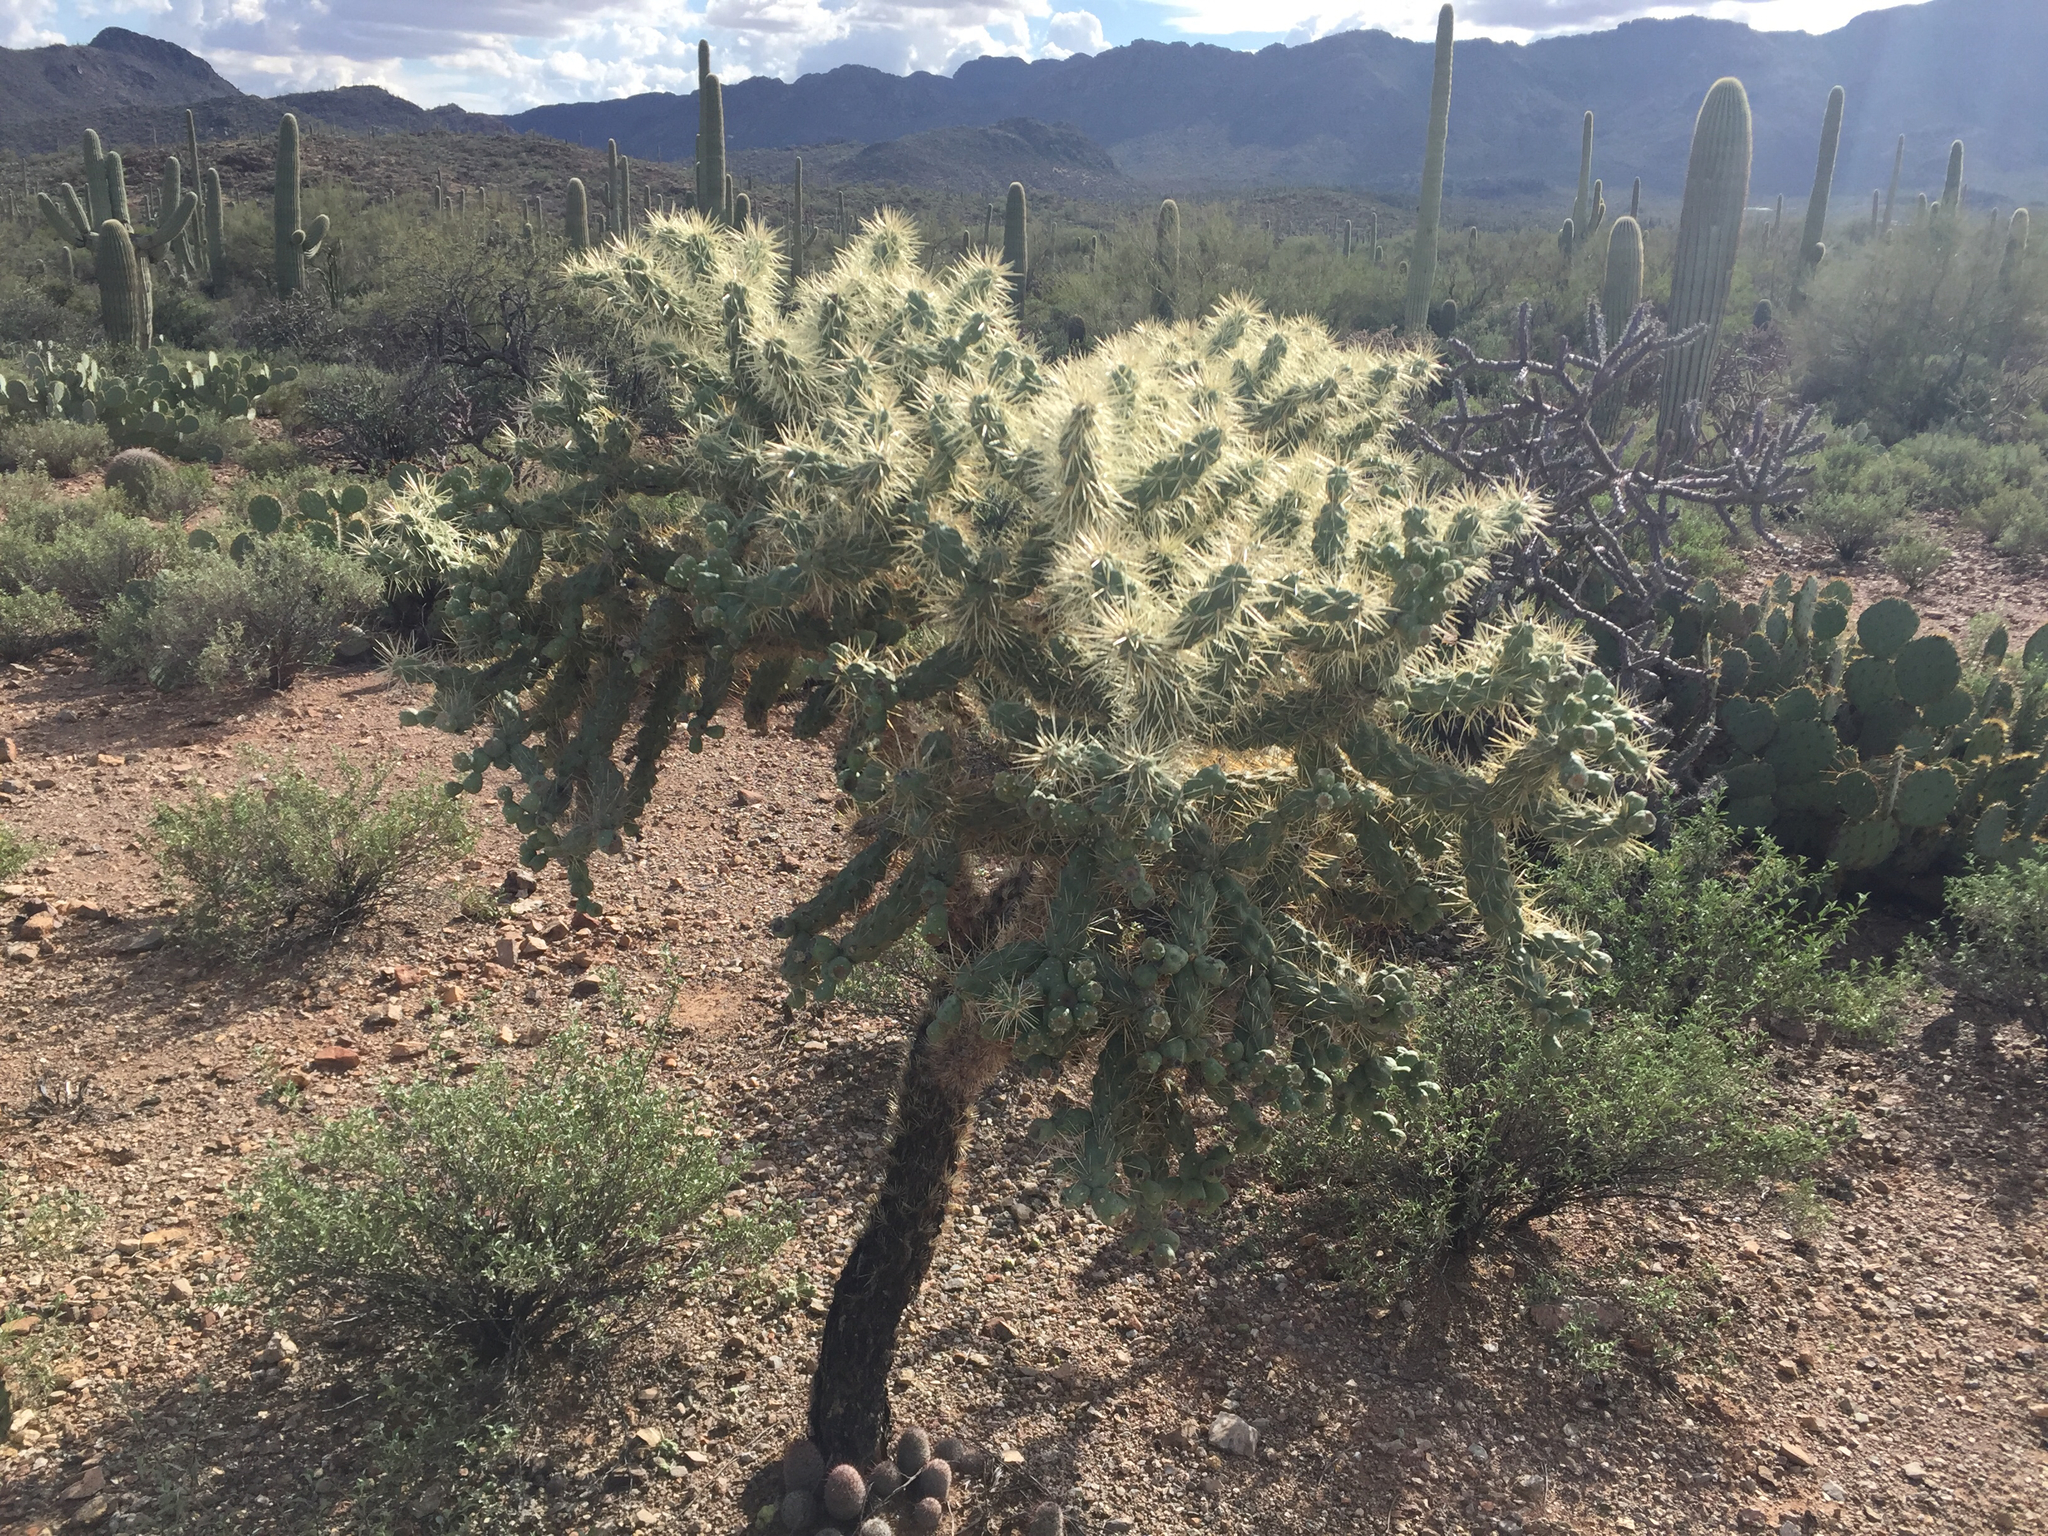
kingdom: Plantae
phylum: Tracheophyta
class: Magnoliopsida
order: Caryophyllales
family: Cactaceae
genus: Cylindropuntia
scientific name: Cylindropuntia fulgida
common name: Jumping cholla
